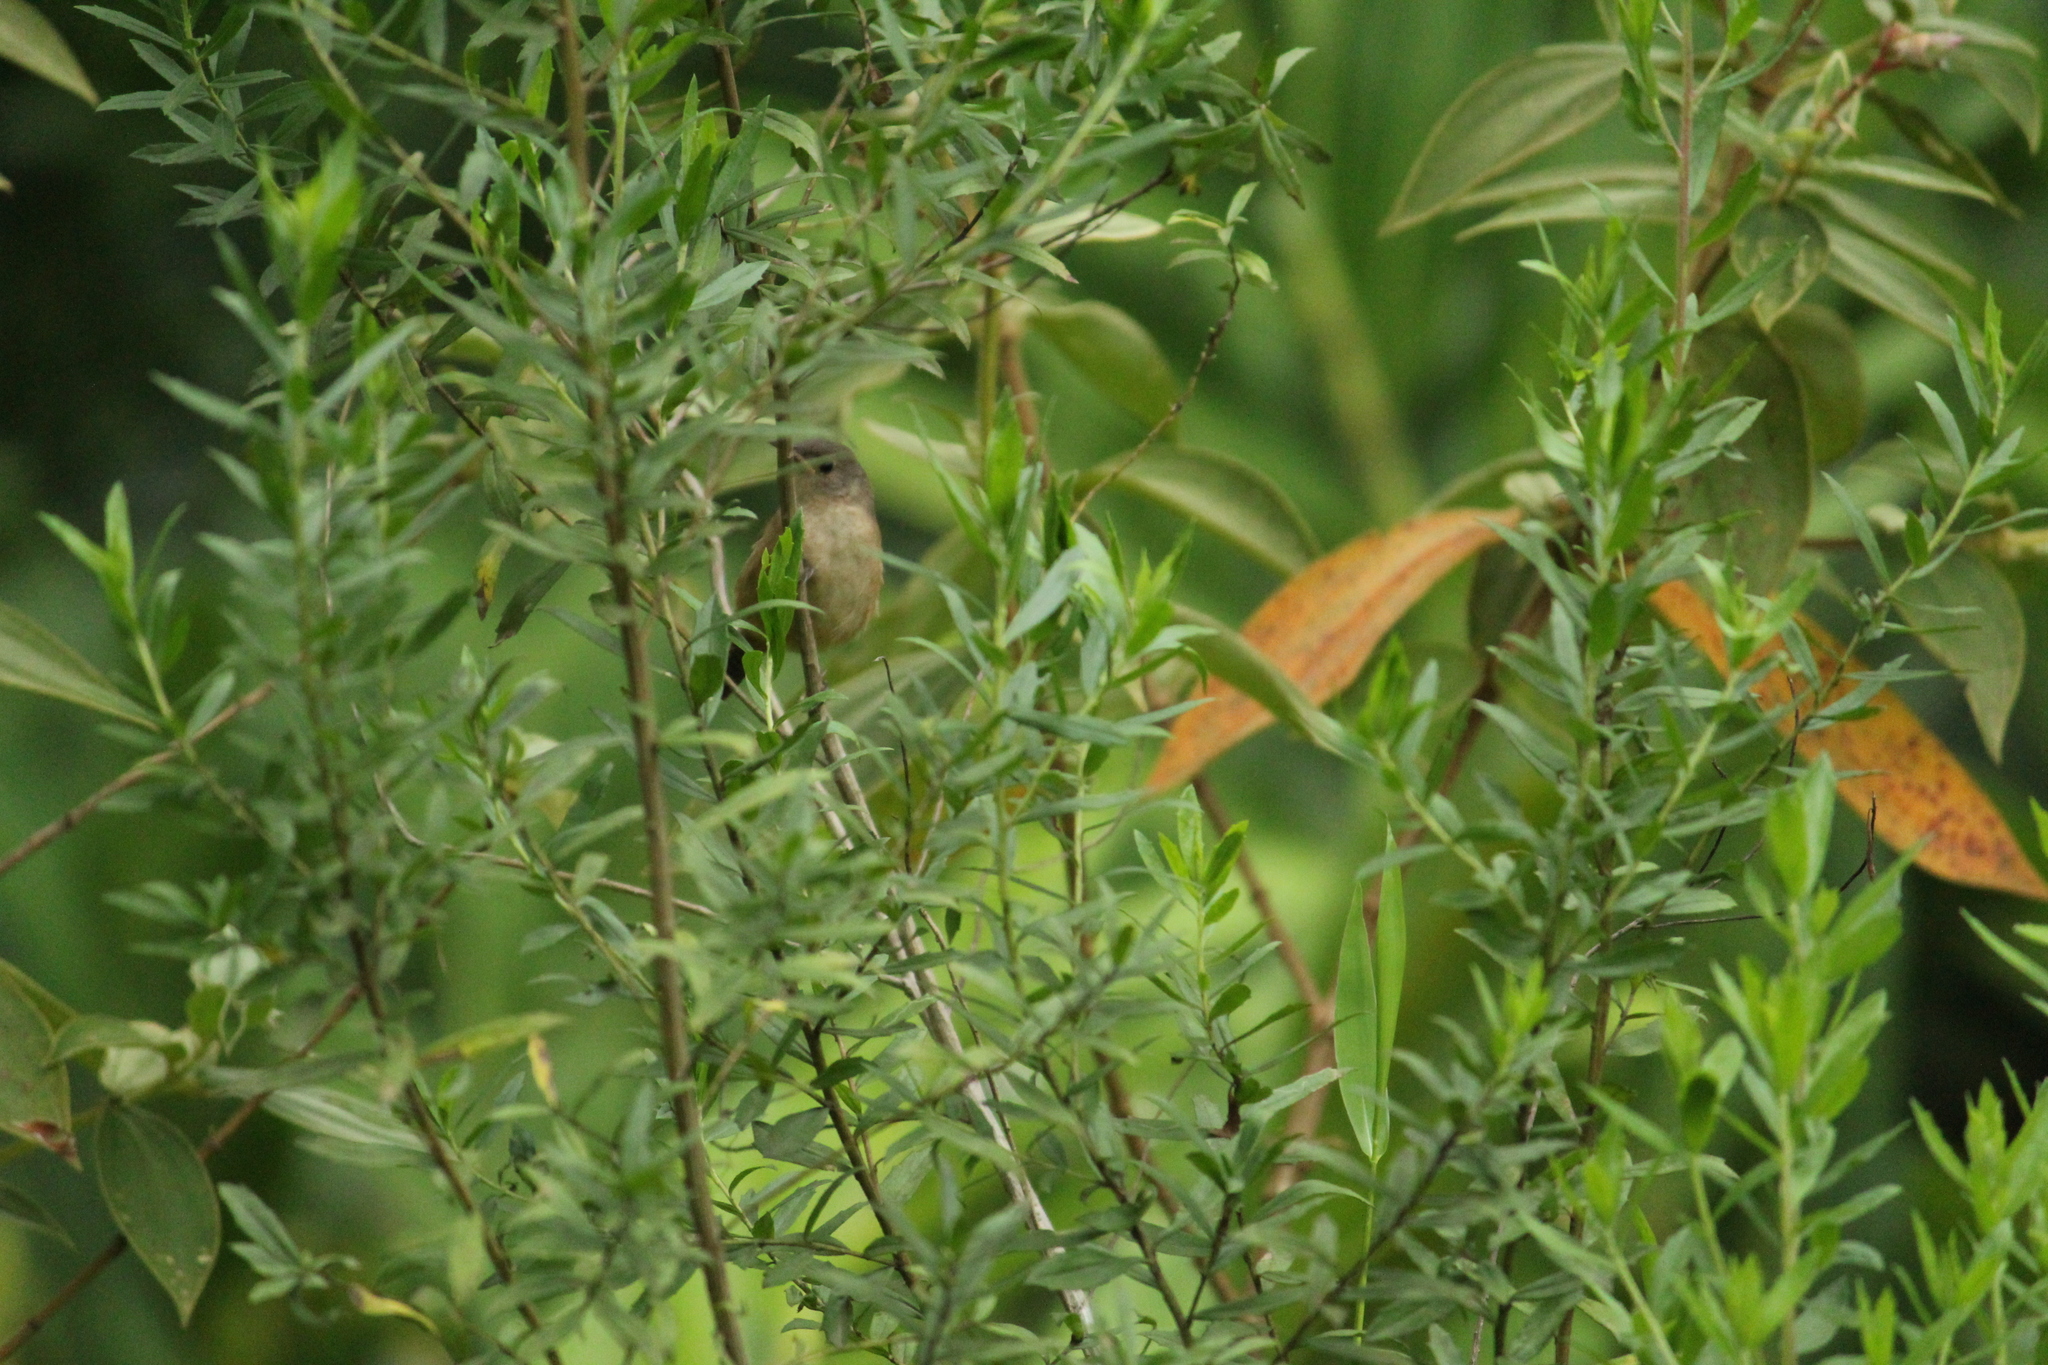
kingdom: Animalia
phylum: Chordata
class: Aves
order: Passeriformes
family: Troglodytidae
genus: Troglodytes
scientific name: Troglodytes aedon
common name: House wren
